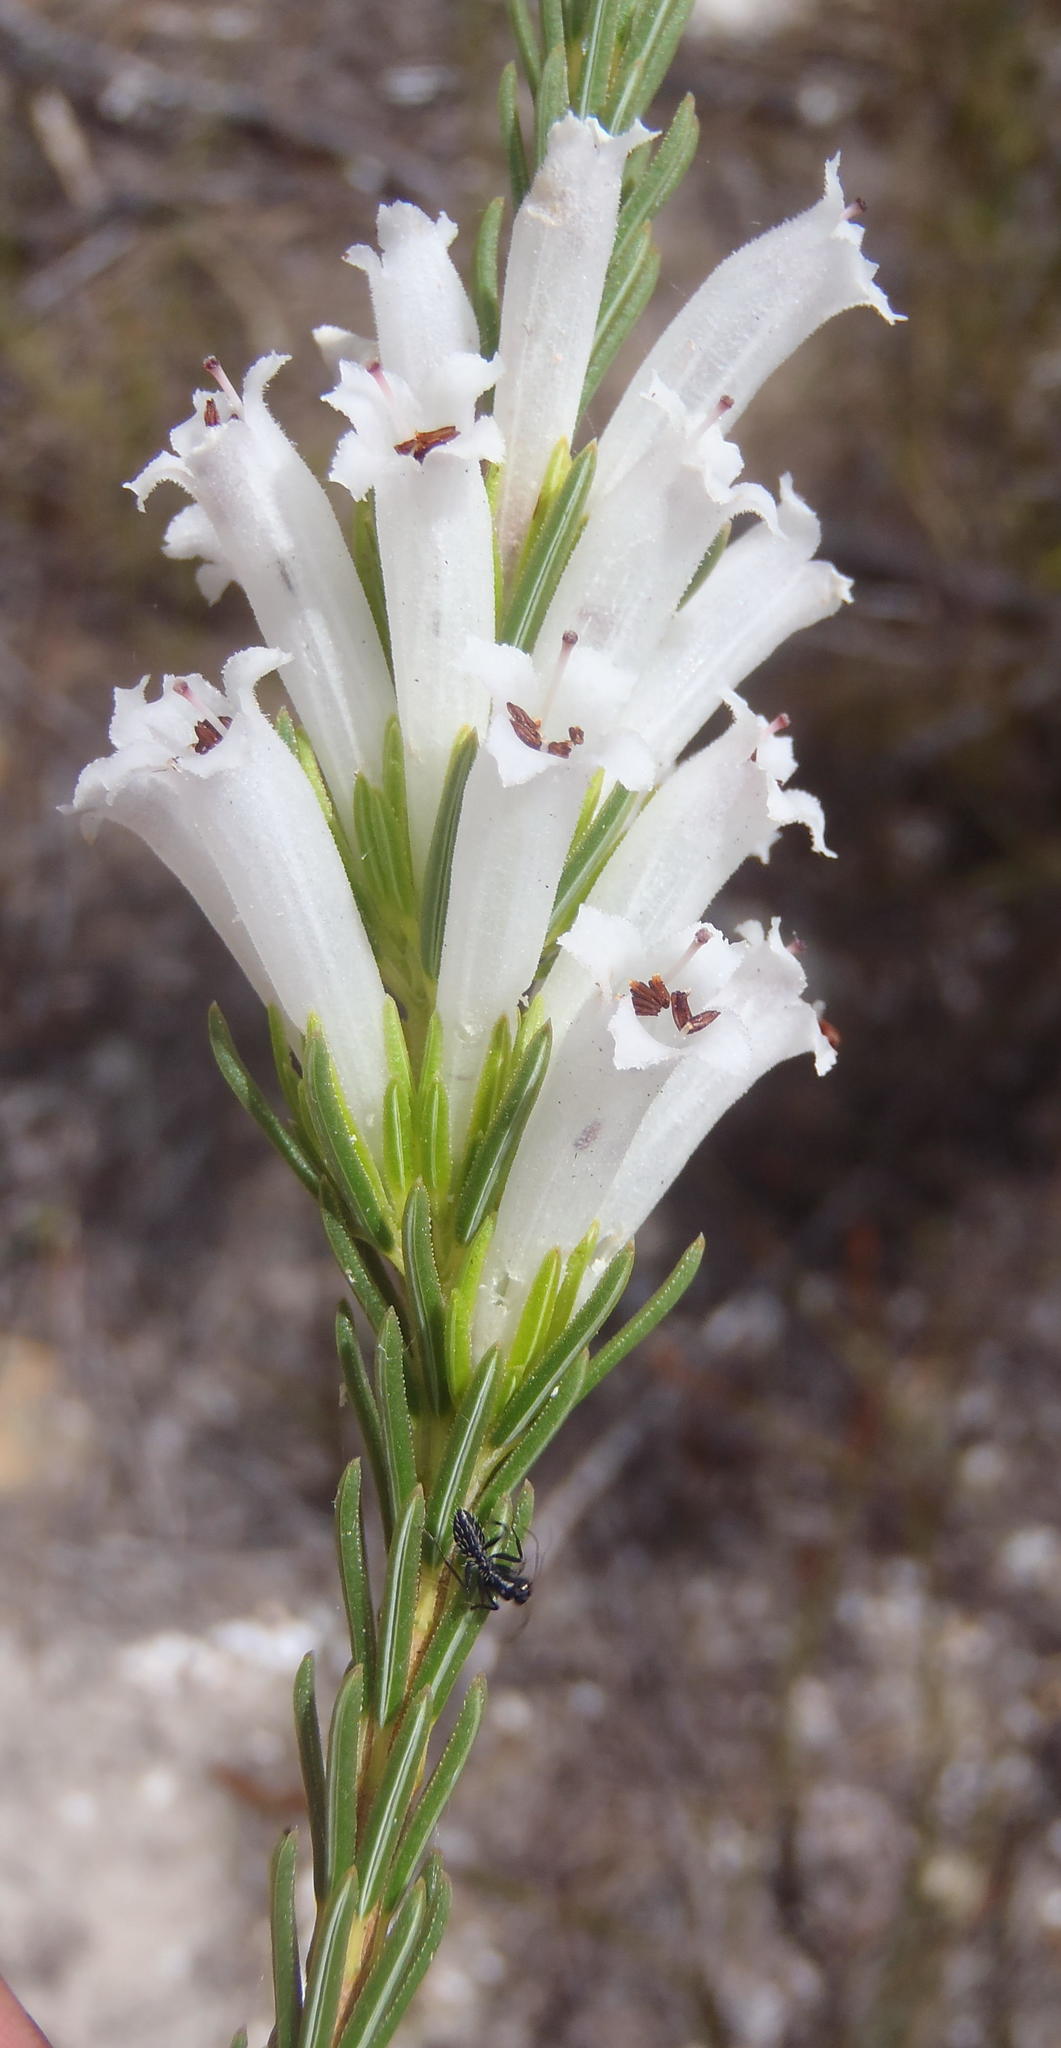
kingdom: Plantae
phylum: Tracheophyta
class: Magnoliopsida
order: Ericales
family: Ericaceae
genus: Erica
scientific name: Erica viscaria
